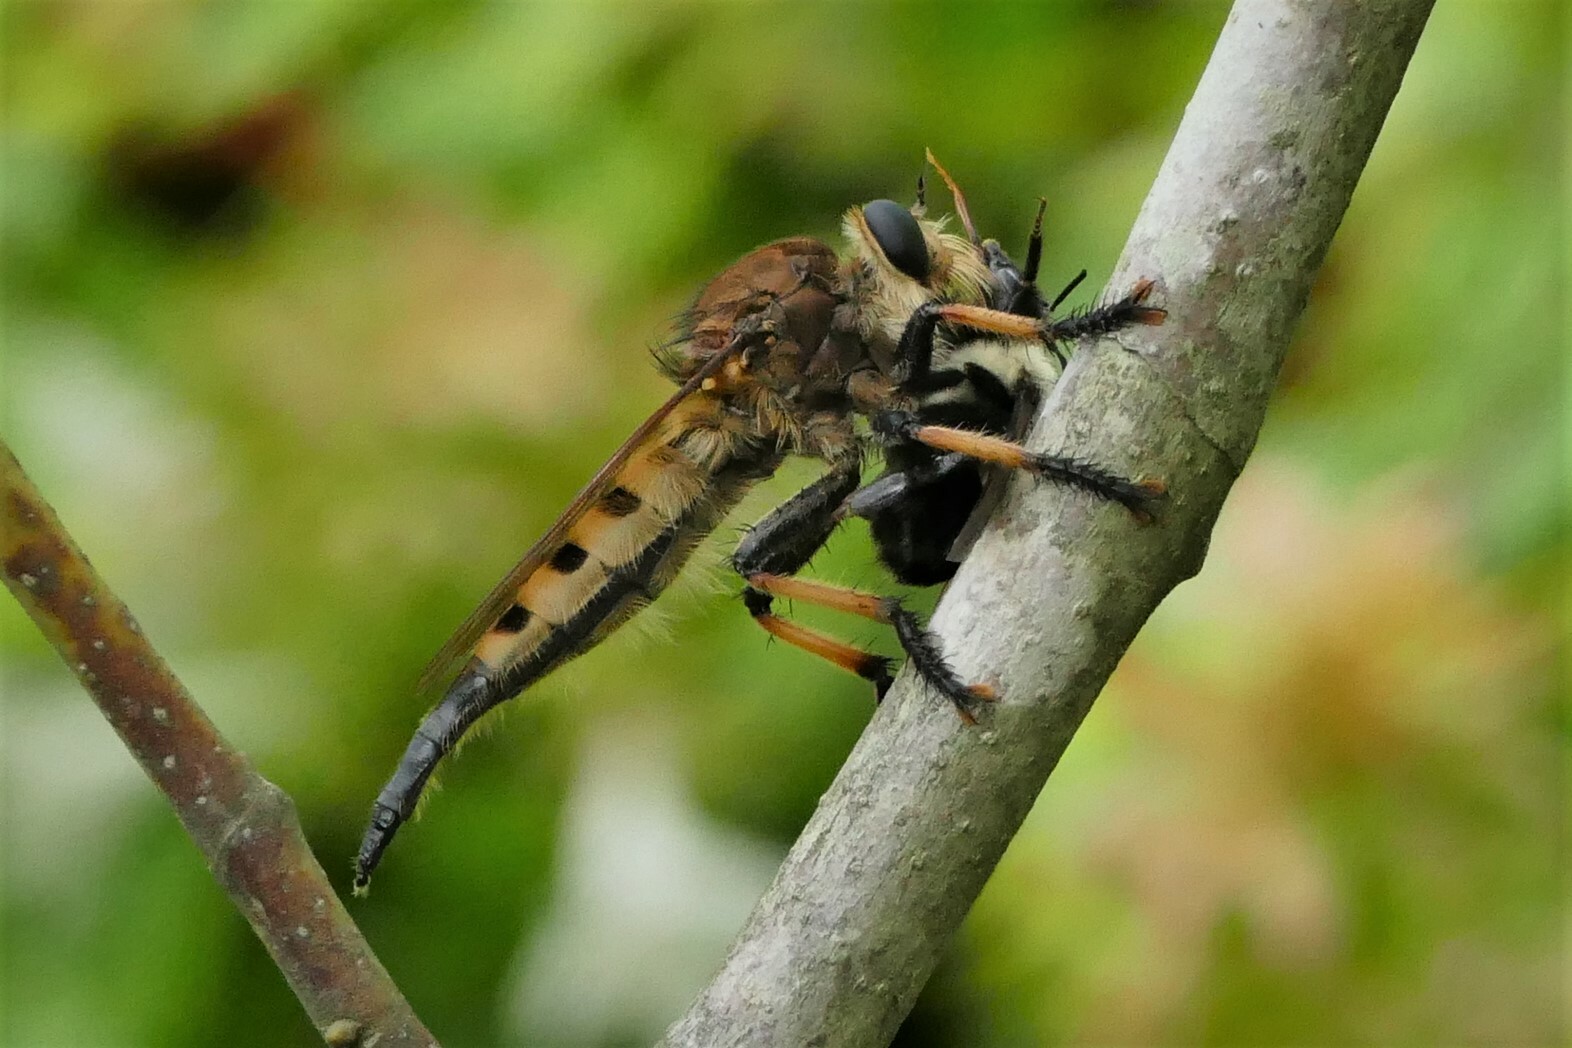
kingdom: Animalia
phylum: Arthropoda
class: Insecta
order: Diptera
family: Asilidae
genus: Promachus
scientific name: Promachus rufipes
